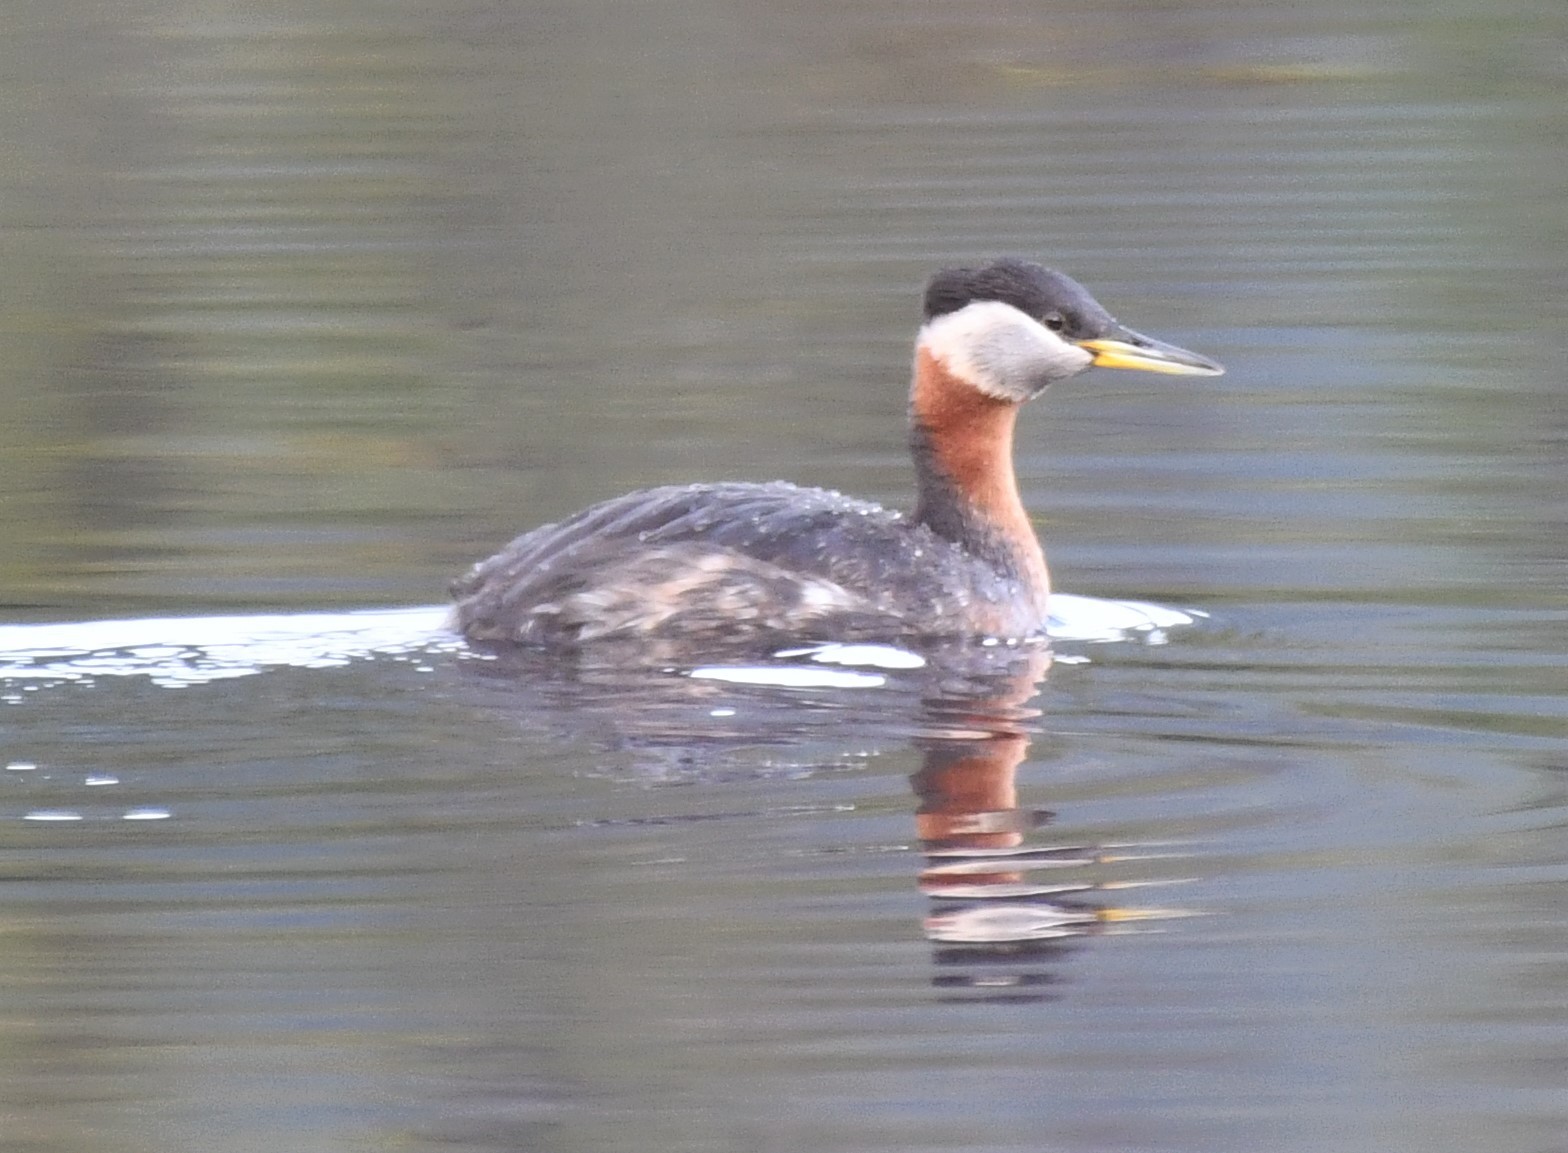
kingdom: Animalia
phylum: Chordata
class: Aves
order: Podicipediformes
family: Podicipedidae
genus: Podiceps
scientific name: Podiceps grisegena
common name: Red-necked grebe
